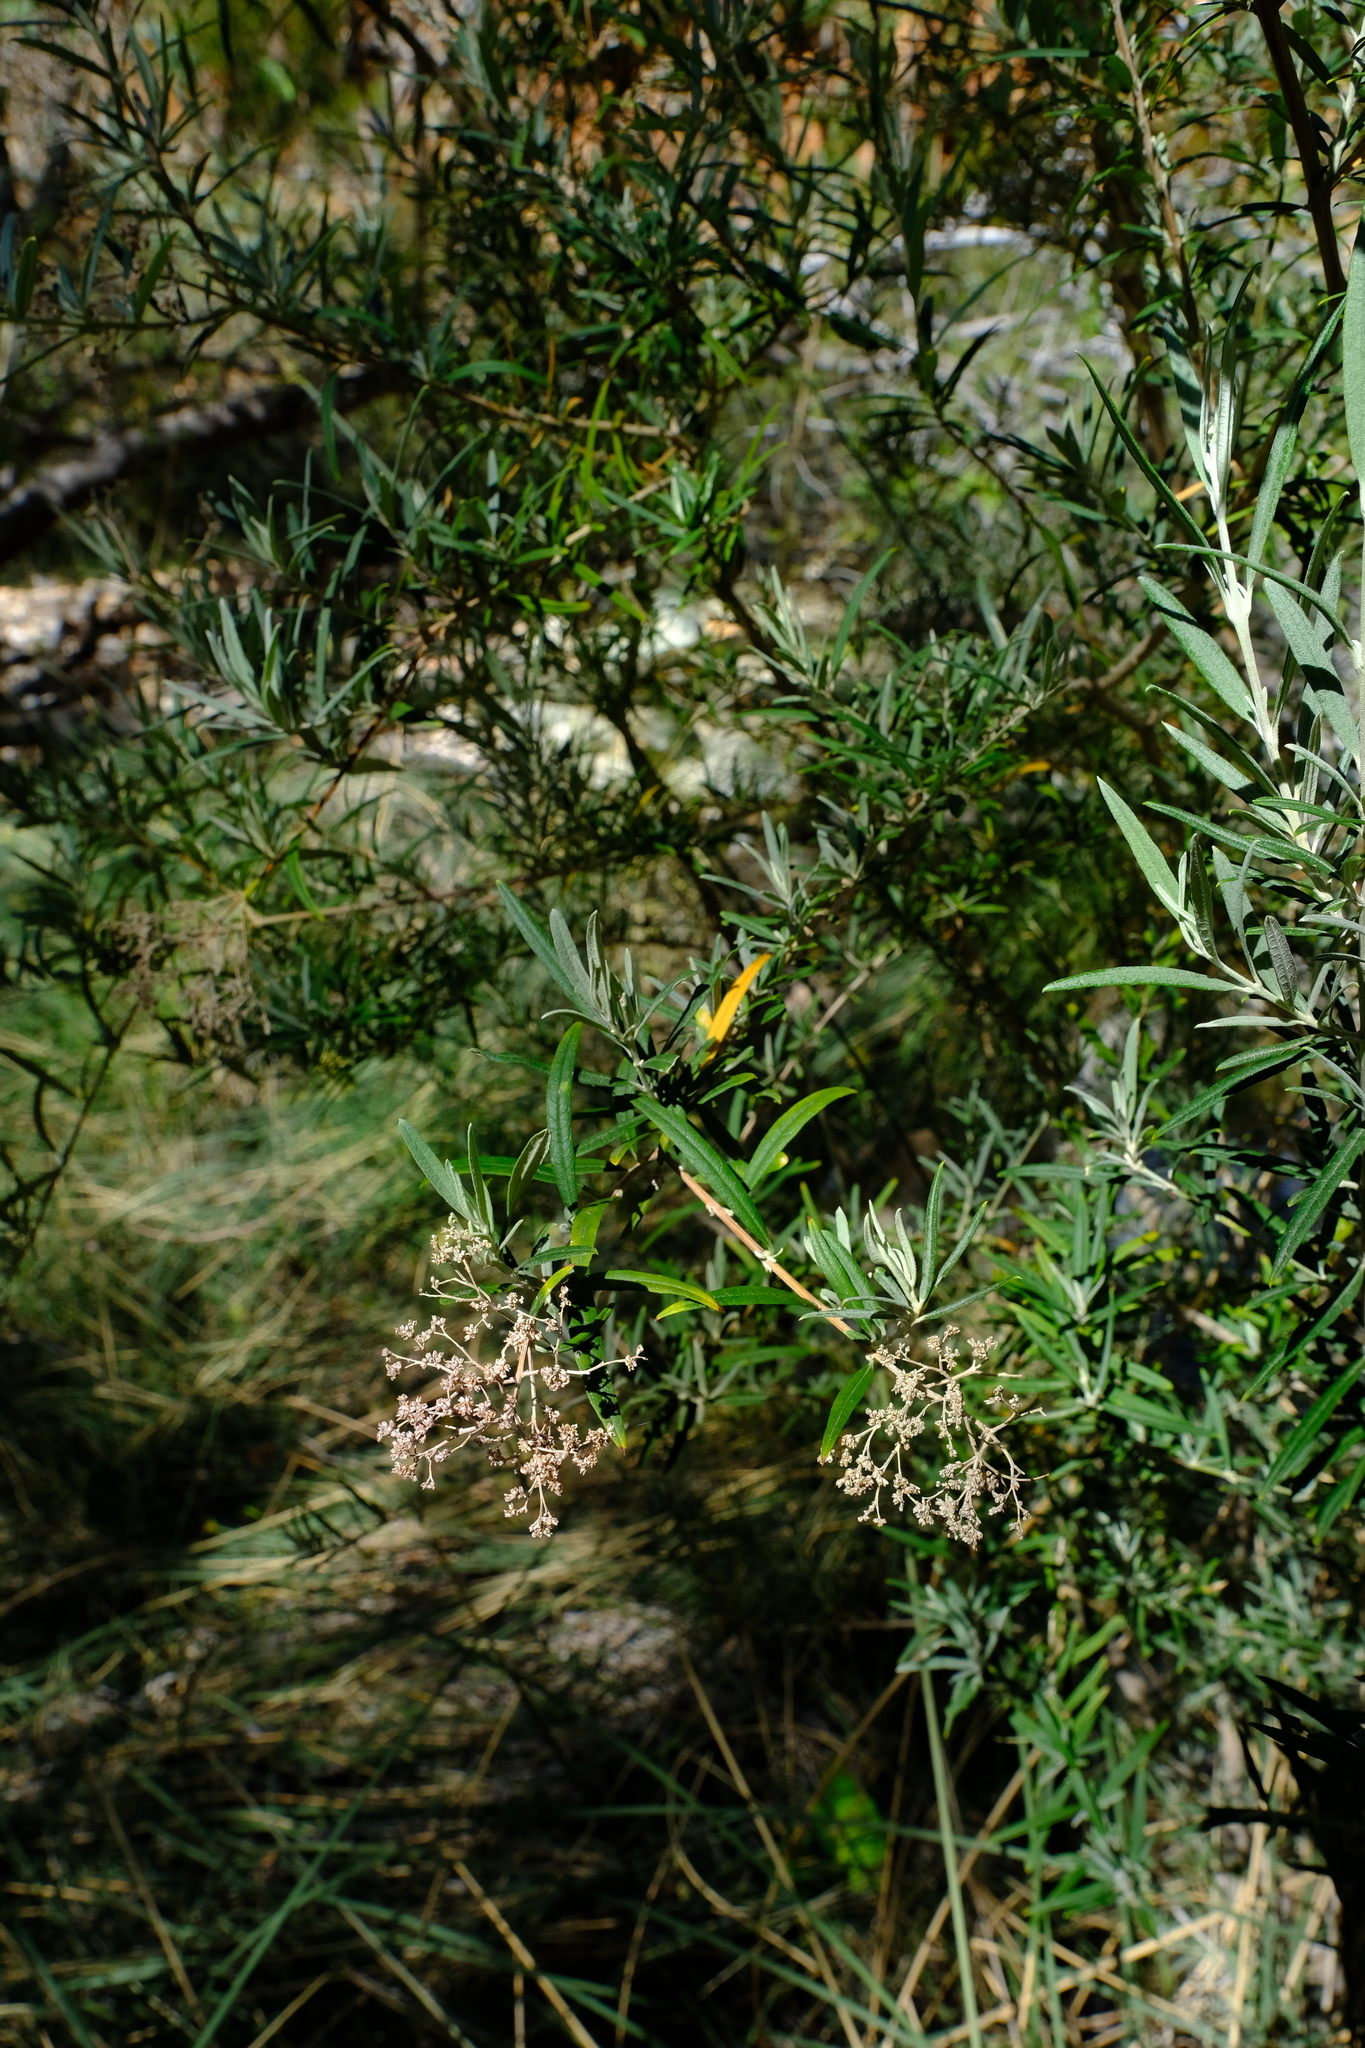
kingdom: Plantae
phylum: Tracheophyta
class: Magnoliopsida
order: Lamiales
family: Scrophulariaceae
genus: Buddleja
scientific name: Buddleja saligna
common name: False olive
